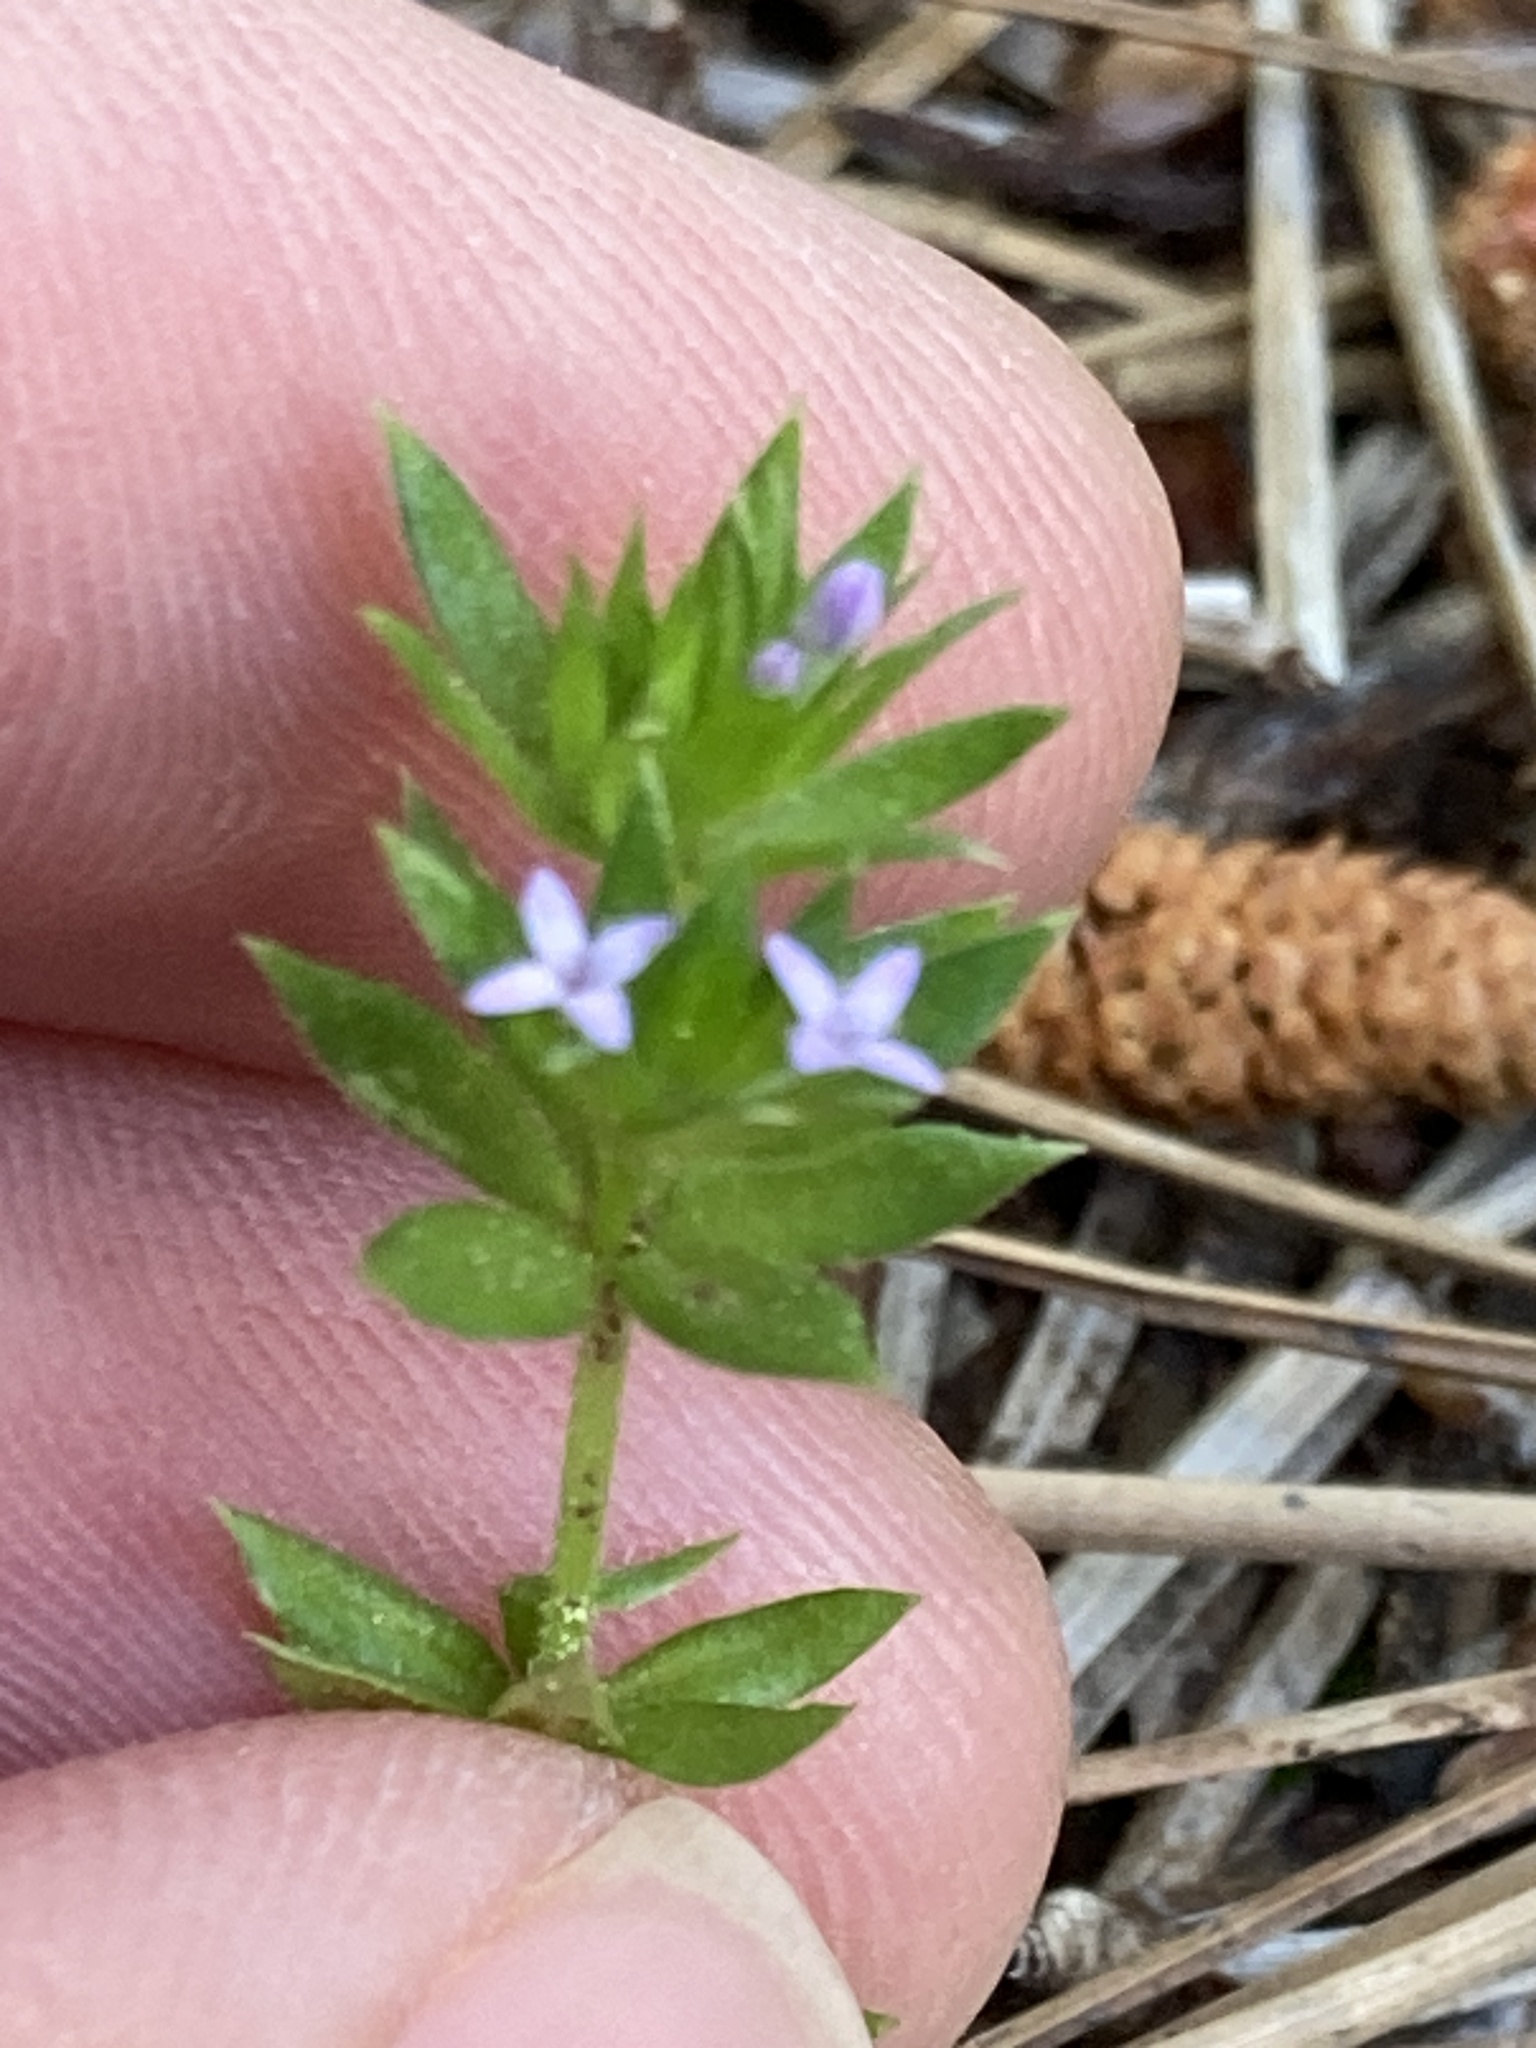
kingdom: Plantae
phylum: Tracheophyta
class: Magnoliopsida
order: Gentianales
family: Rubiaceae
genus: Sherardia
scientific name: Sherardia arvensis
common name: Field madder
